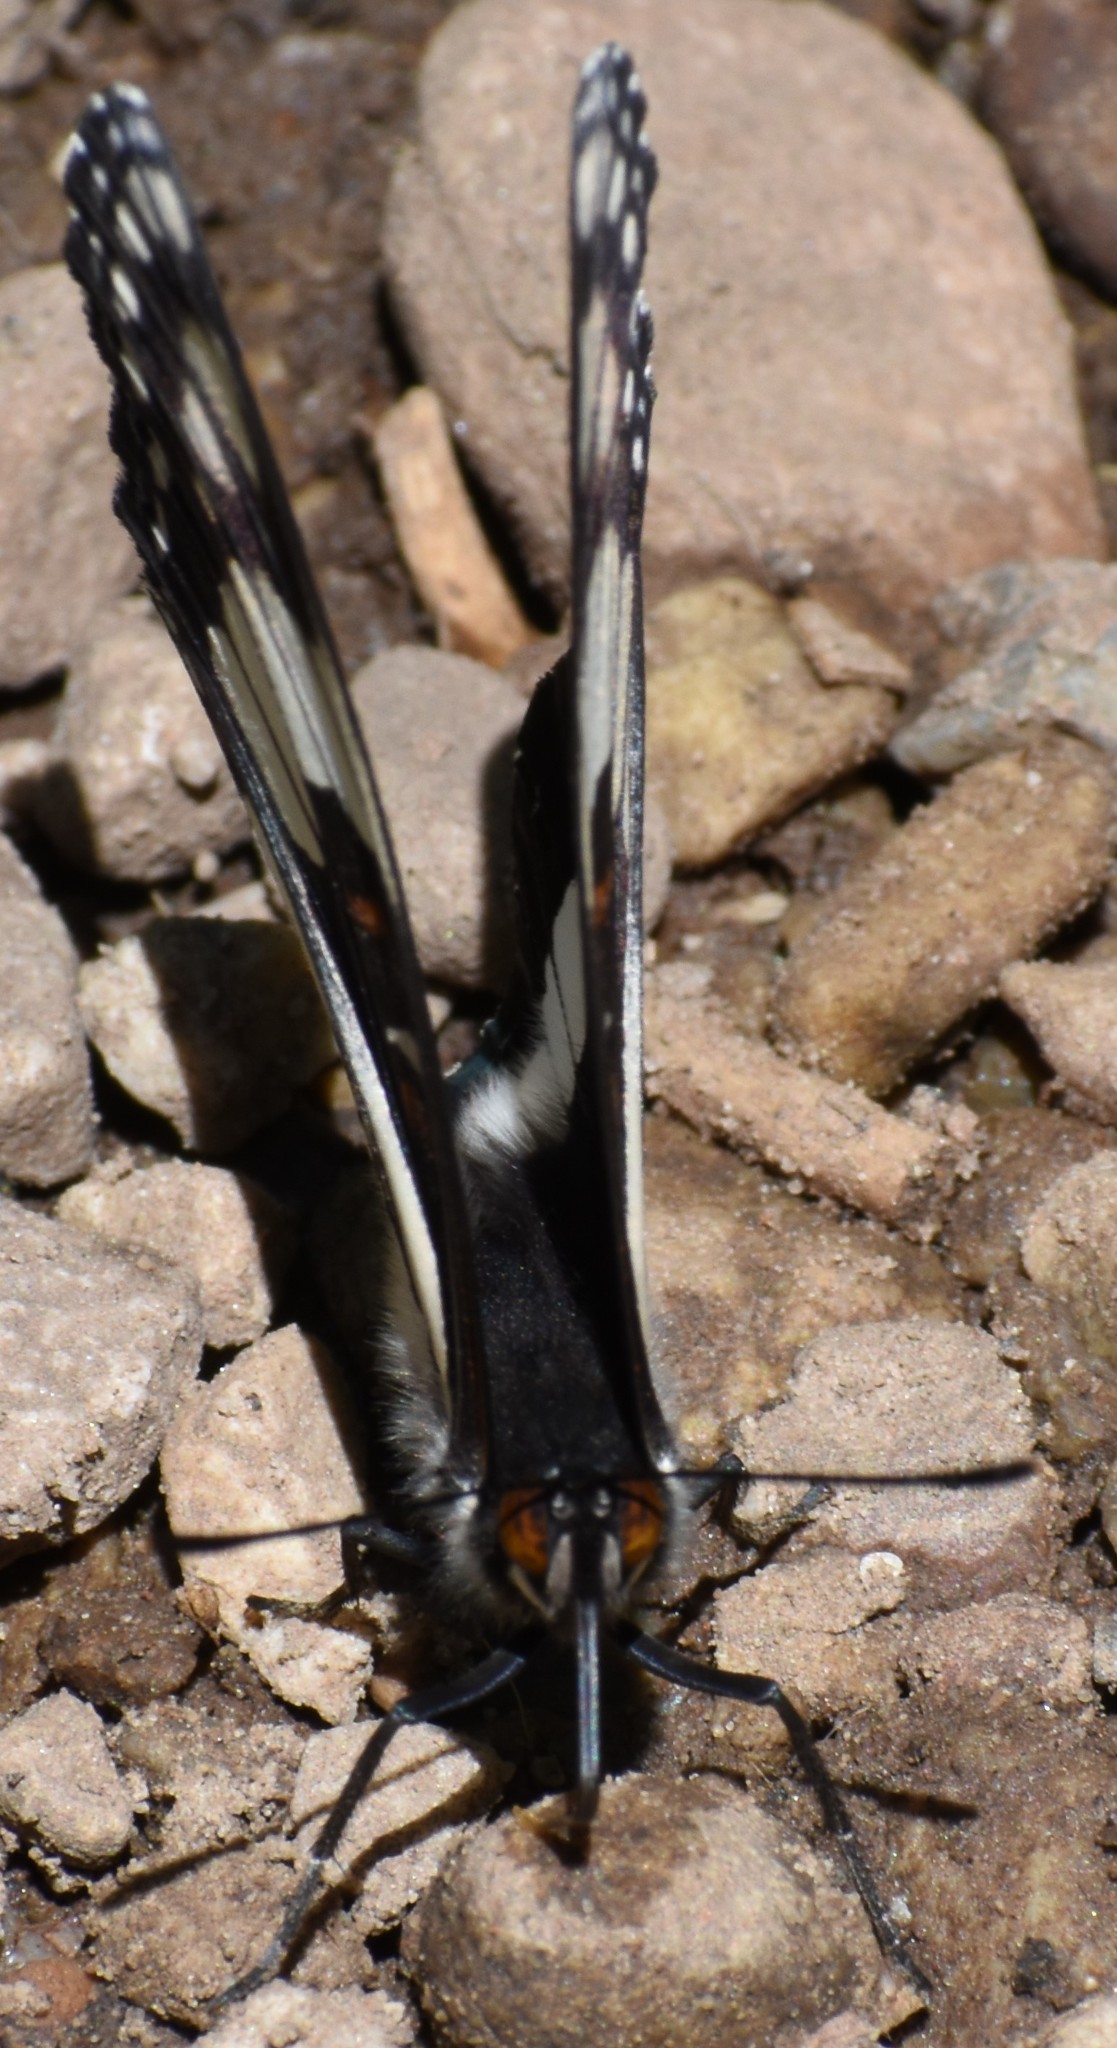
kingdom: Animalia
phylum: Arthropoda
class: Insecta
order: Lepidoptera
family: Nymphalidae
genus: Limenitis
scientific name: Limenitis weidemeyerii
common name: Weidemeyer's admiral
